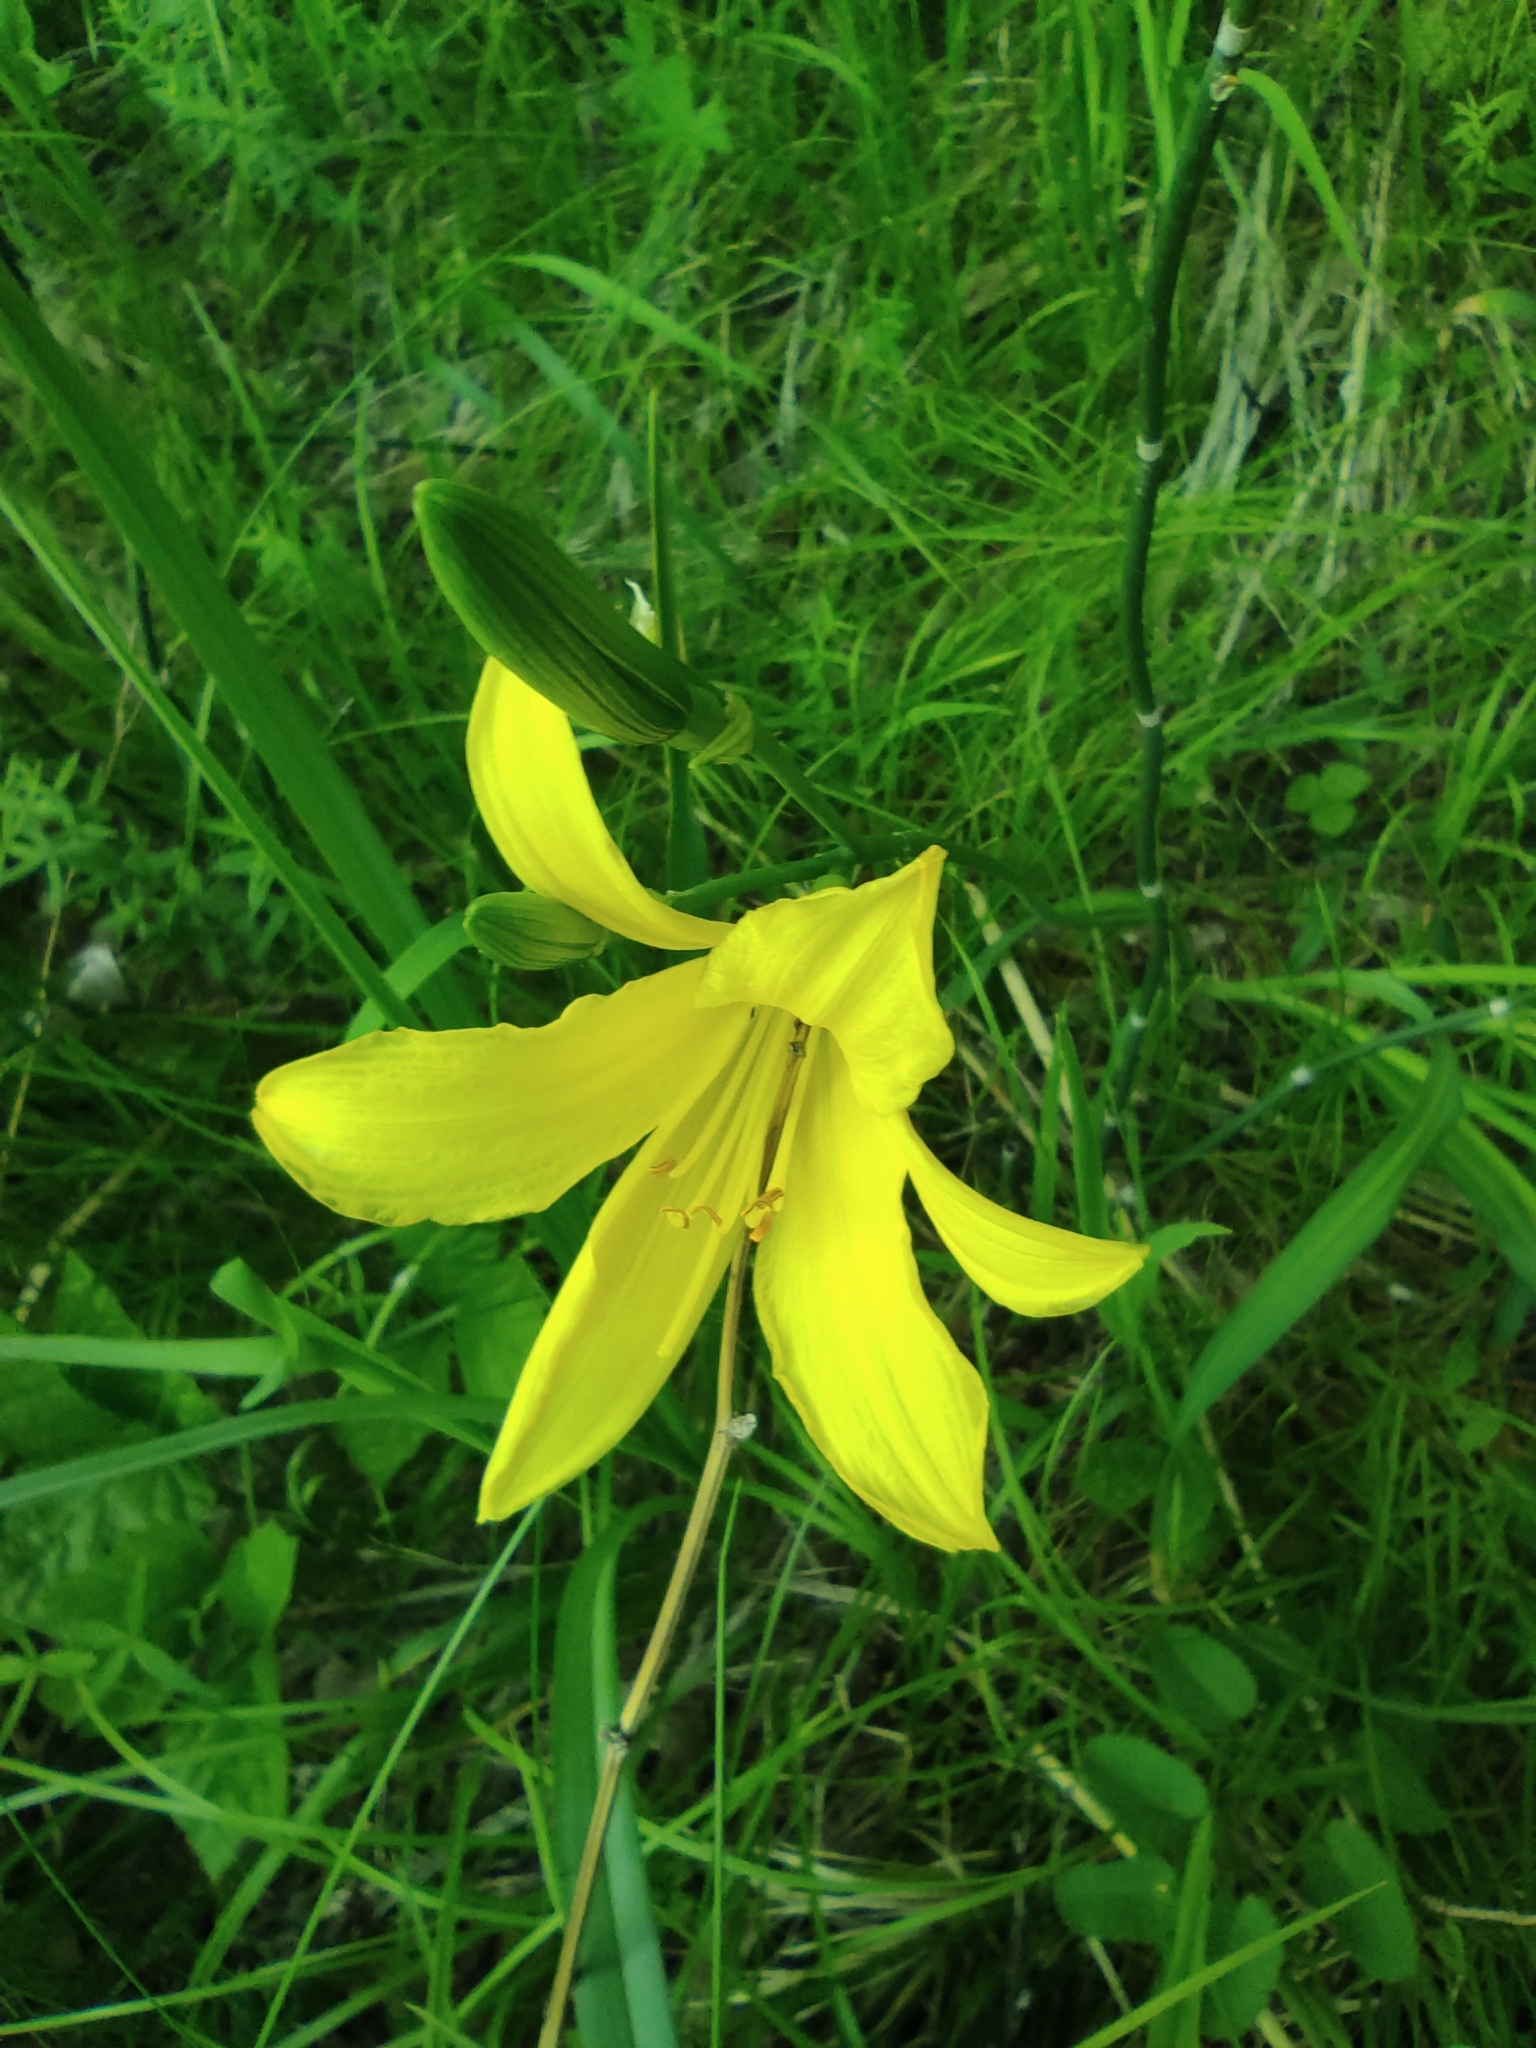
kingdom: Plantae
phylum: Tracheophyta
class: Liliopsida
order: Asparagales
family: Asphodelaceae
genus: Hemerocallis
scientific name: Hemerocallis minor
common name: Small daylily
